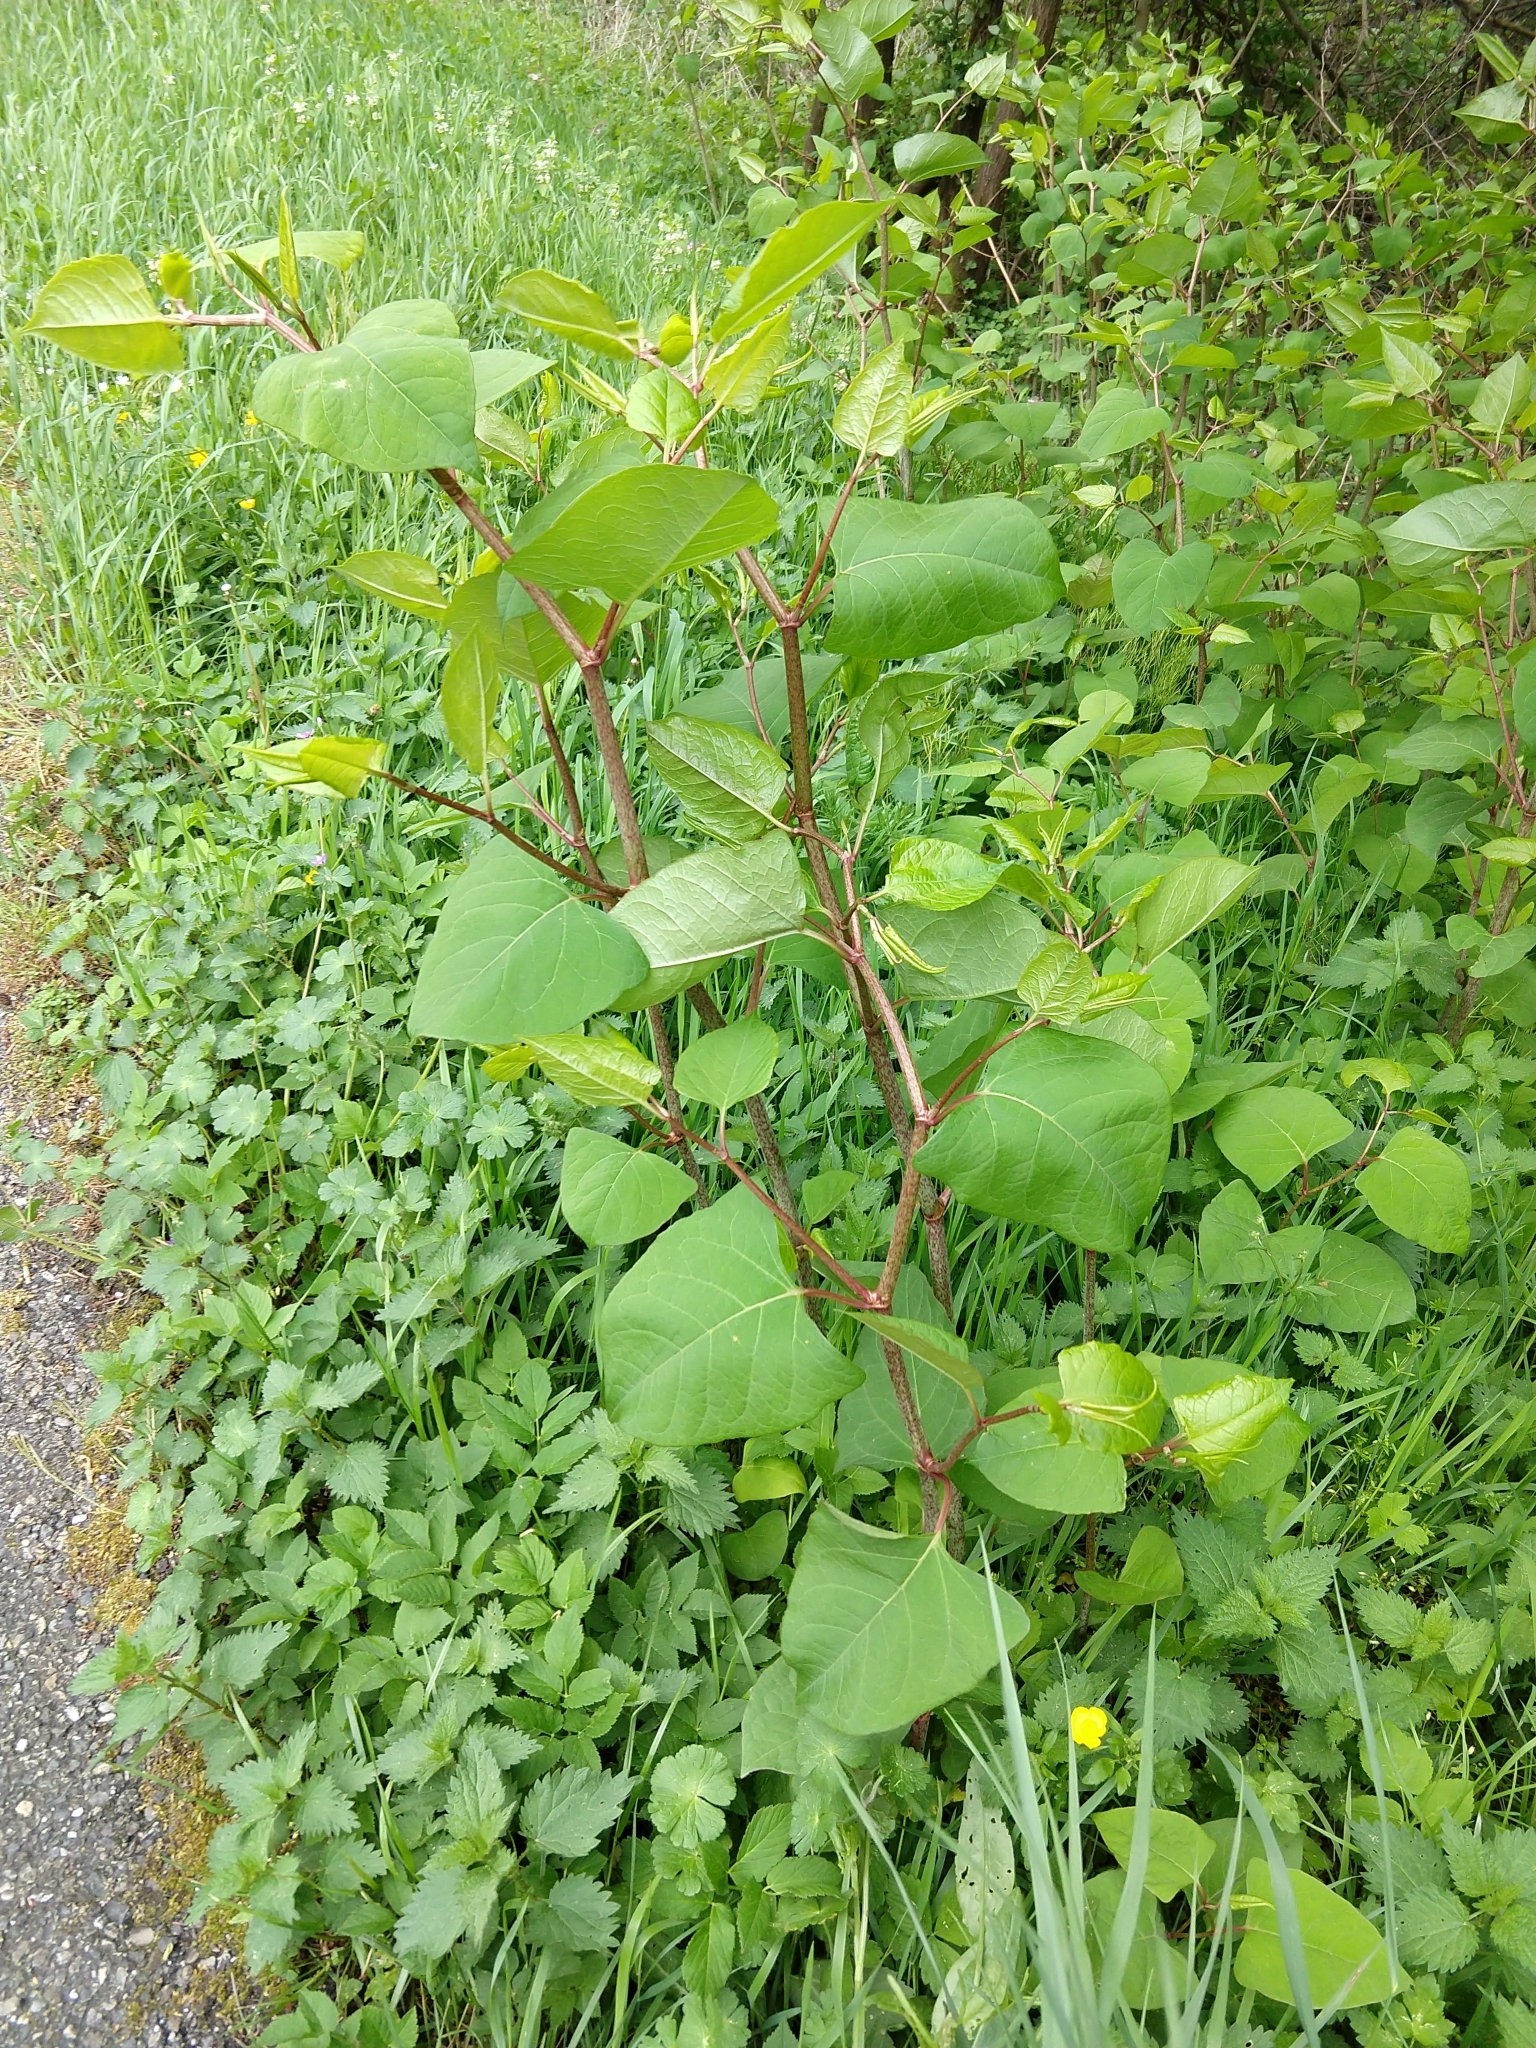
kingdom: Plantae
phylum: Tracheophyta
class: Magnoliopsida
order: Caryophyllales
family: Polygonaceae
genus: Reynoutria
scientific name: Reynoutria japonica
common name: Japanese knotweed
